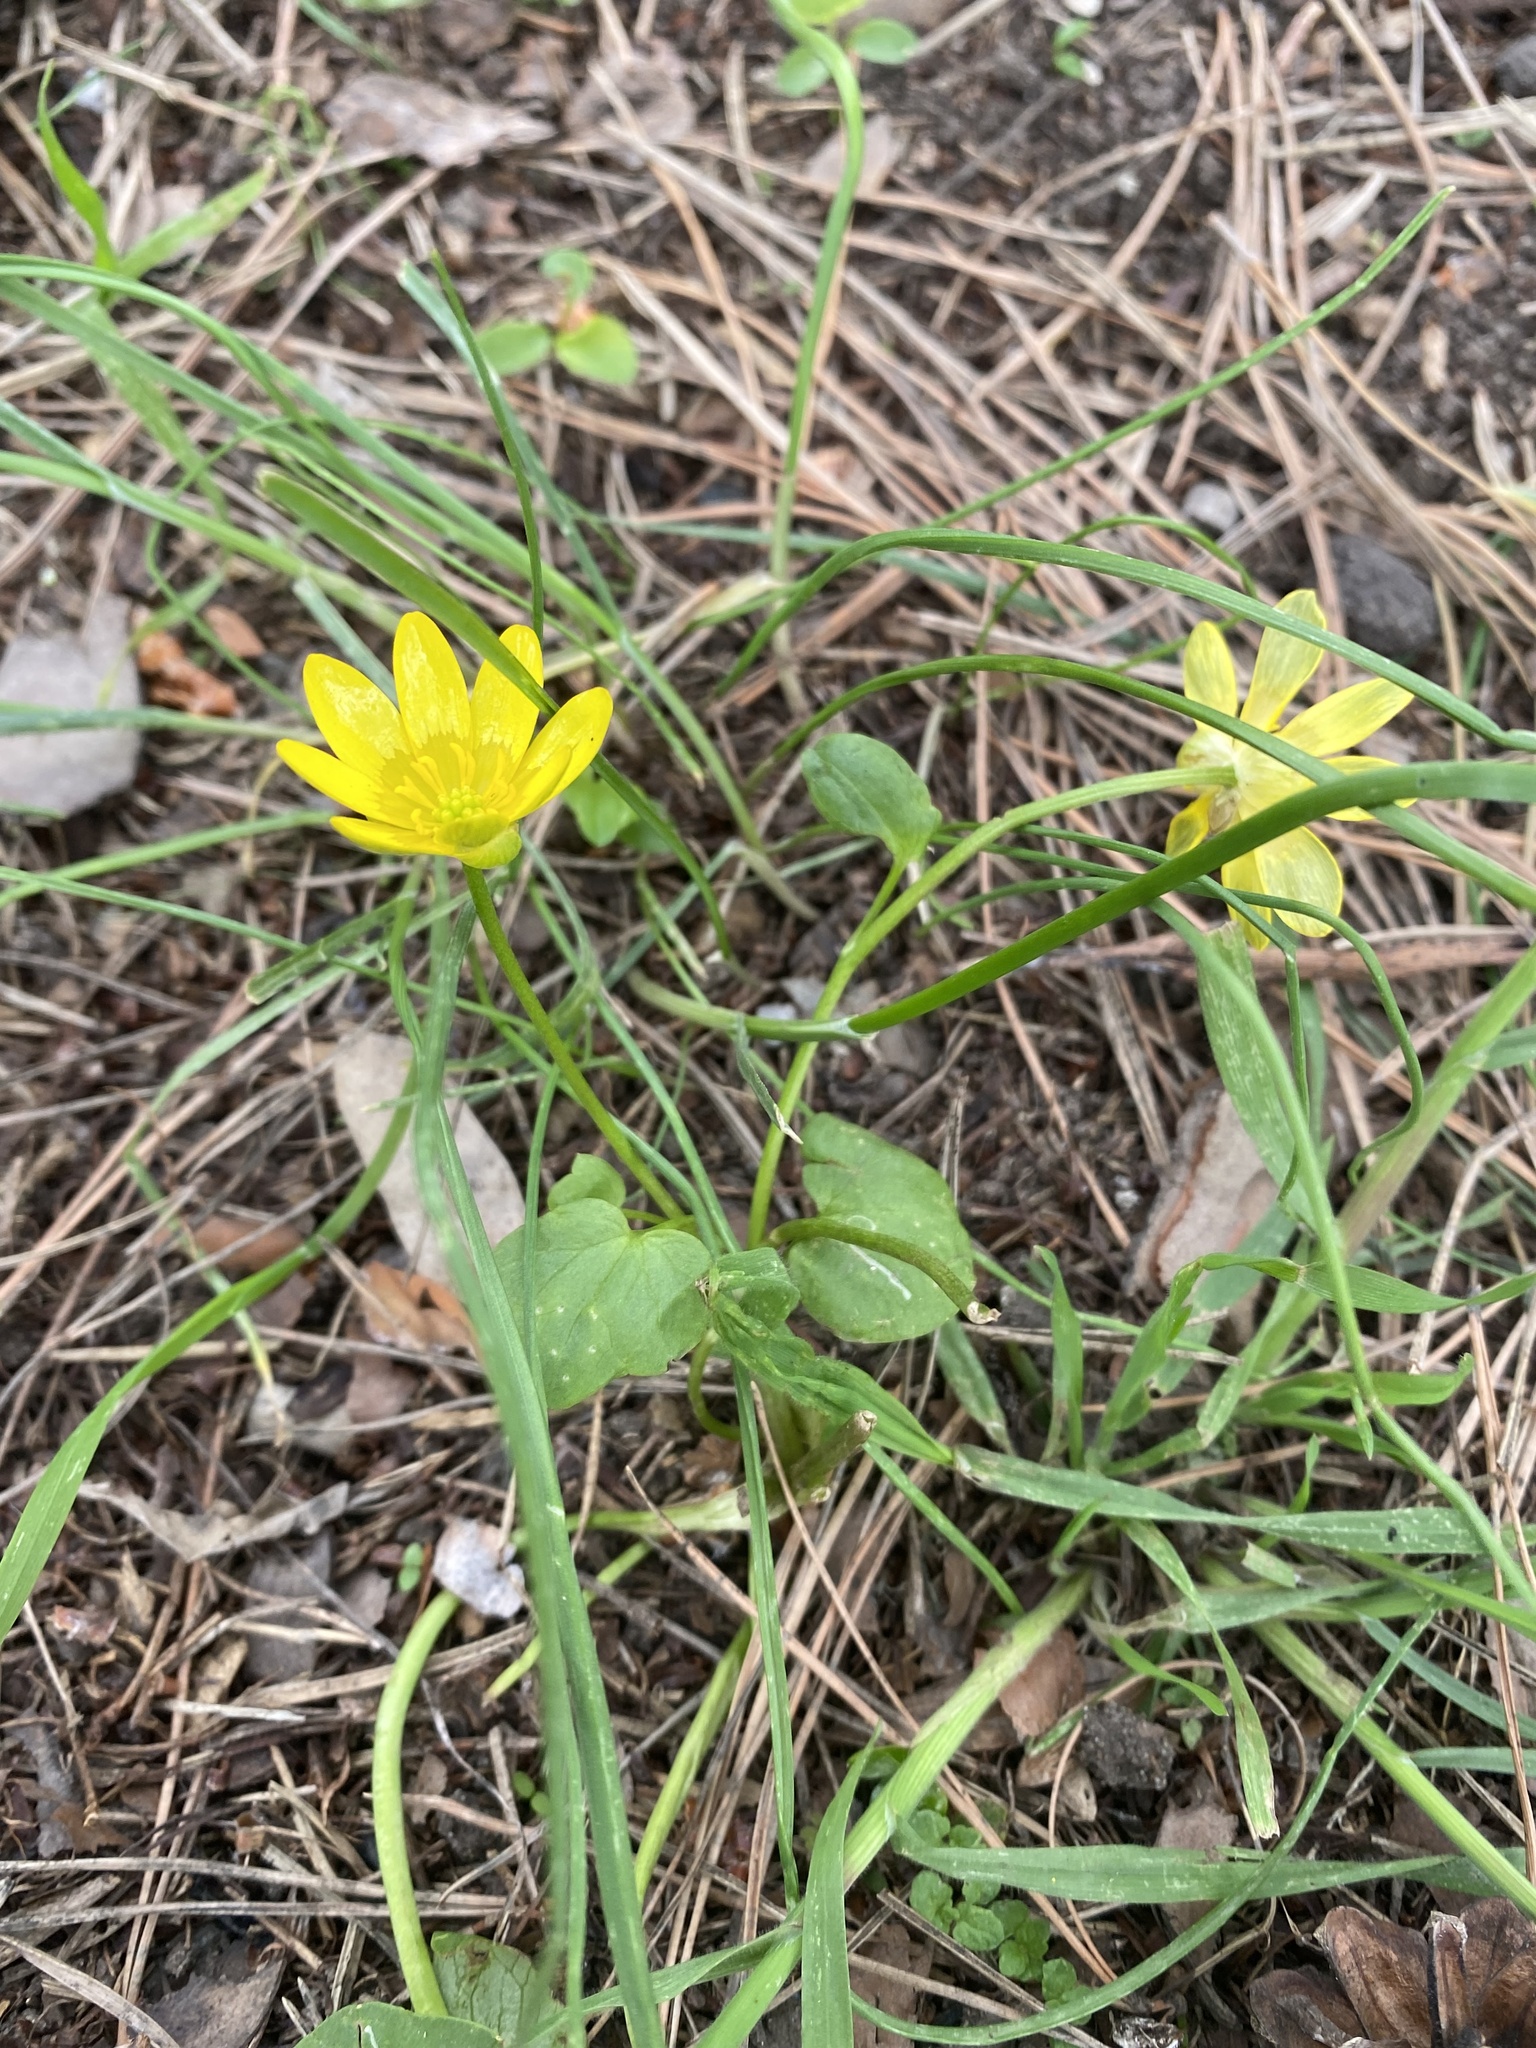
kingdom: Plantae
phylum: Tracheophyta
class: Magnoliopsida
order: Ranunculales
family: Ranunculaceae
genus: Ficaria
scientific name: Ficaria verna
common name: Lesser celandine
